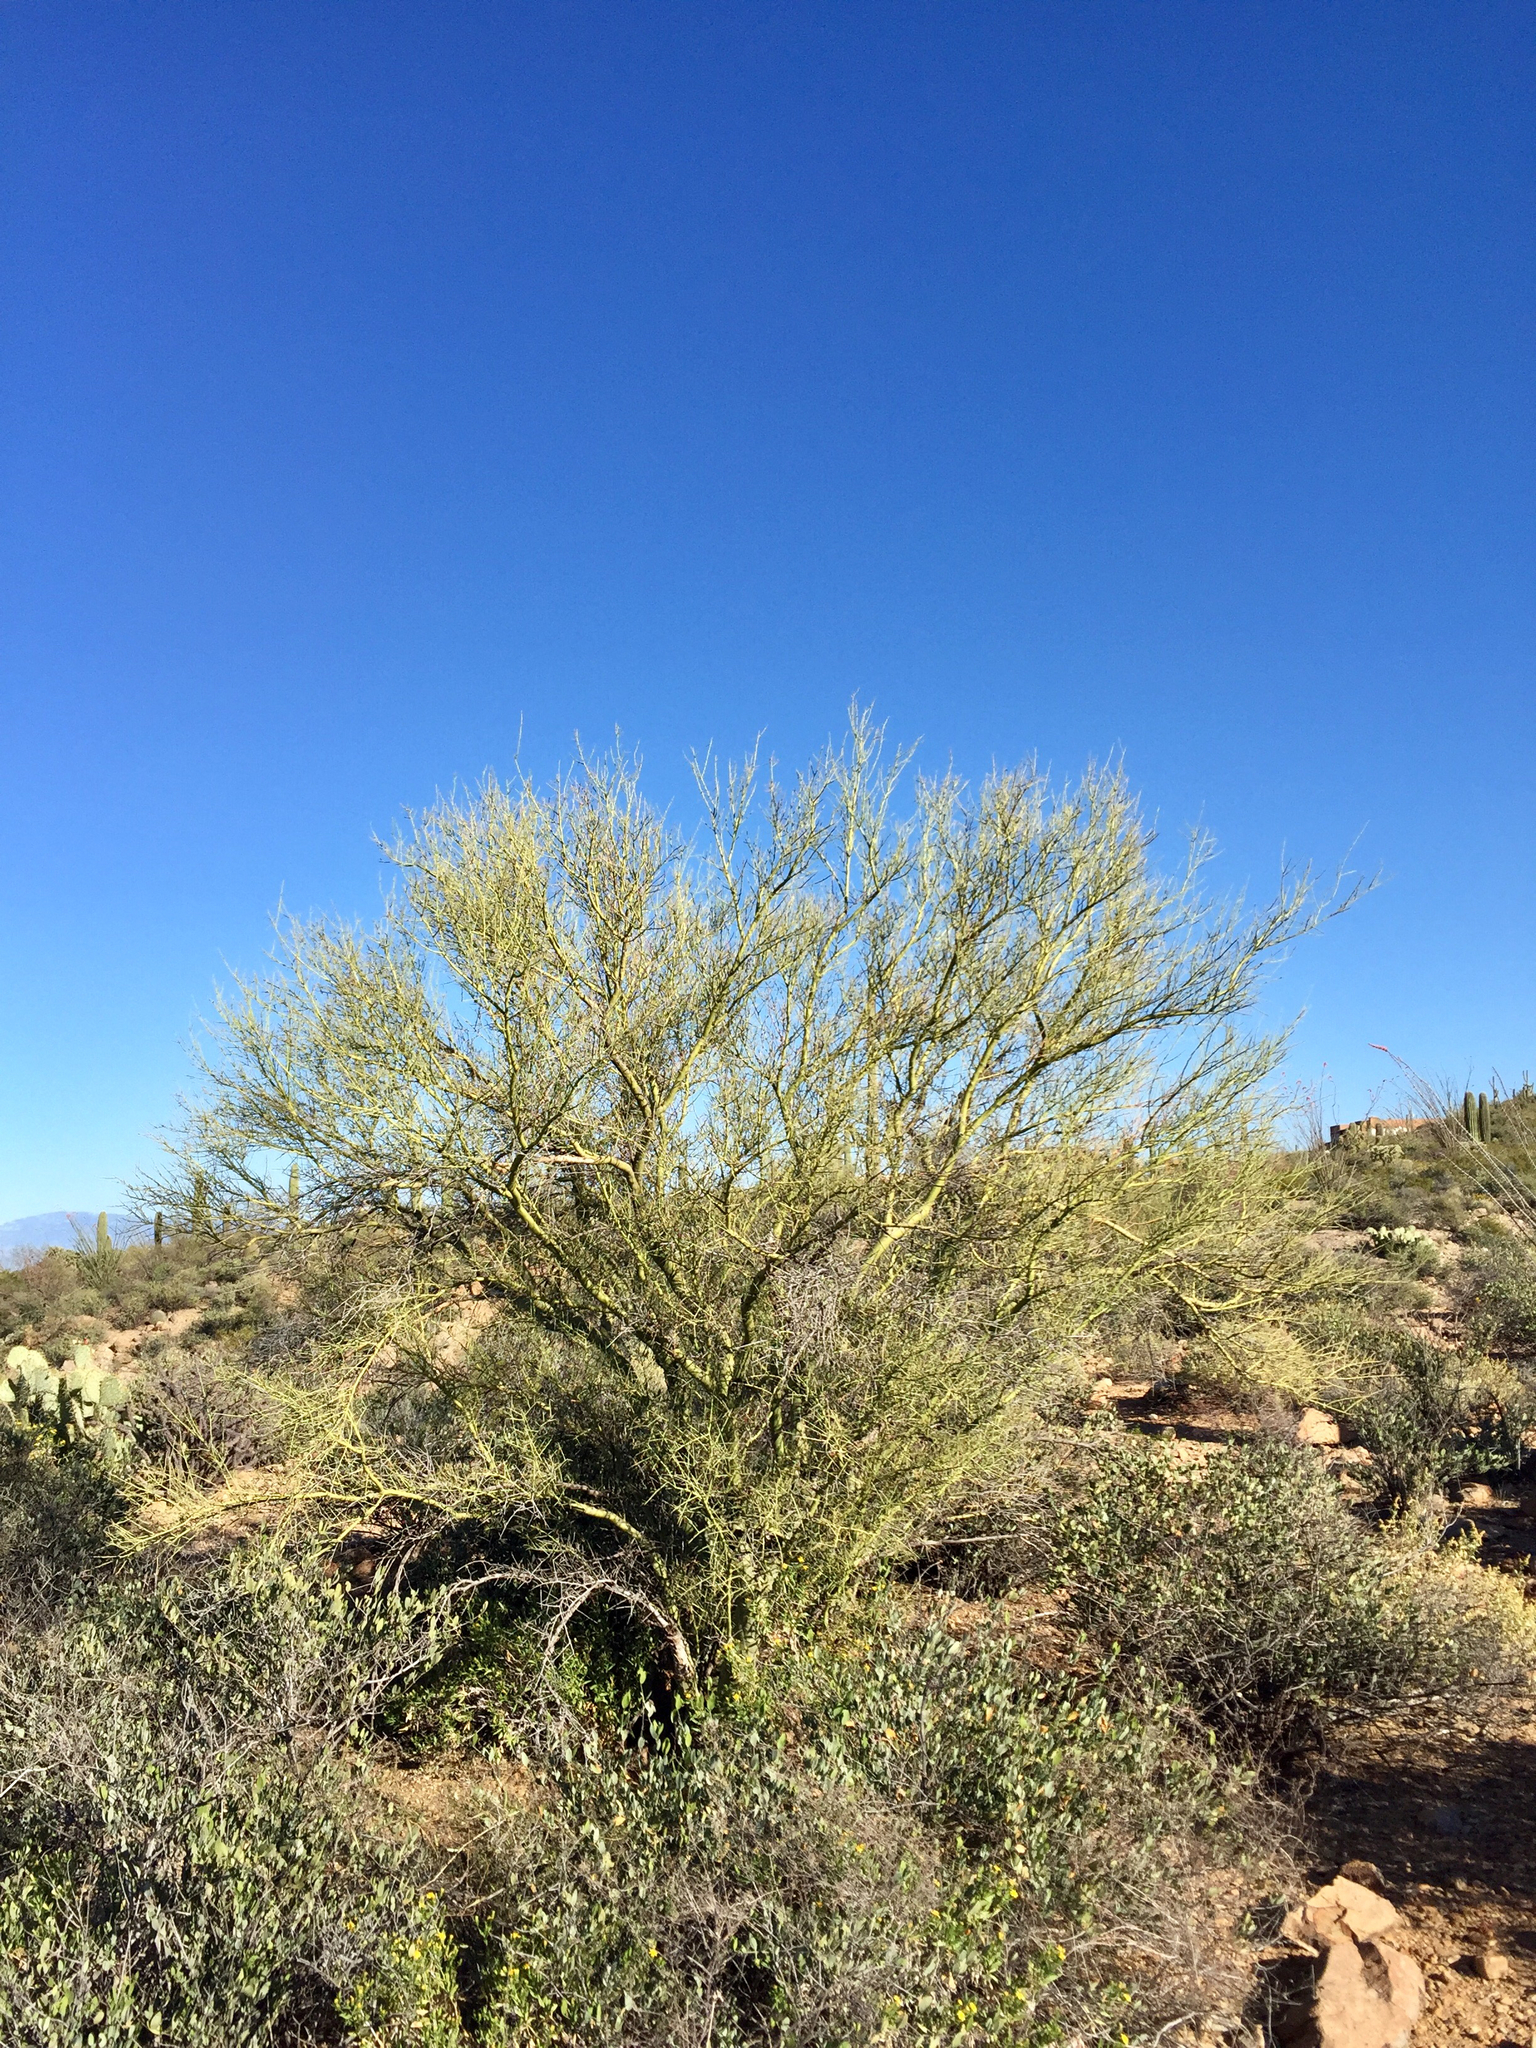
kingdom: Plantae
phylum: Tracheophyta
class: Magnoliopsida
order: Fabales
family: Fabaceae
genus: Parkinsonia
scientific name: Parkinsonia microphylla
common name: Yellow paloverde
